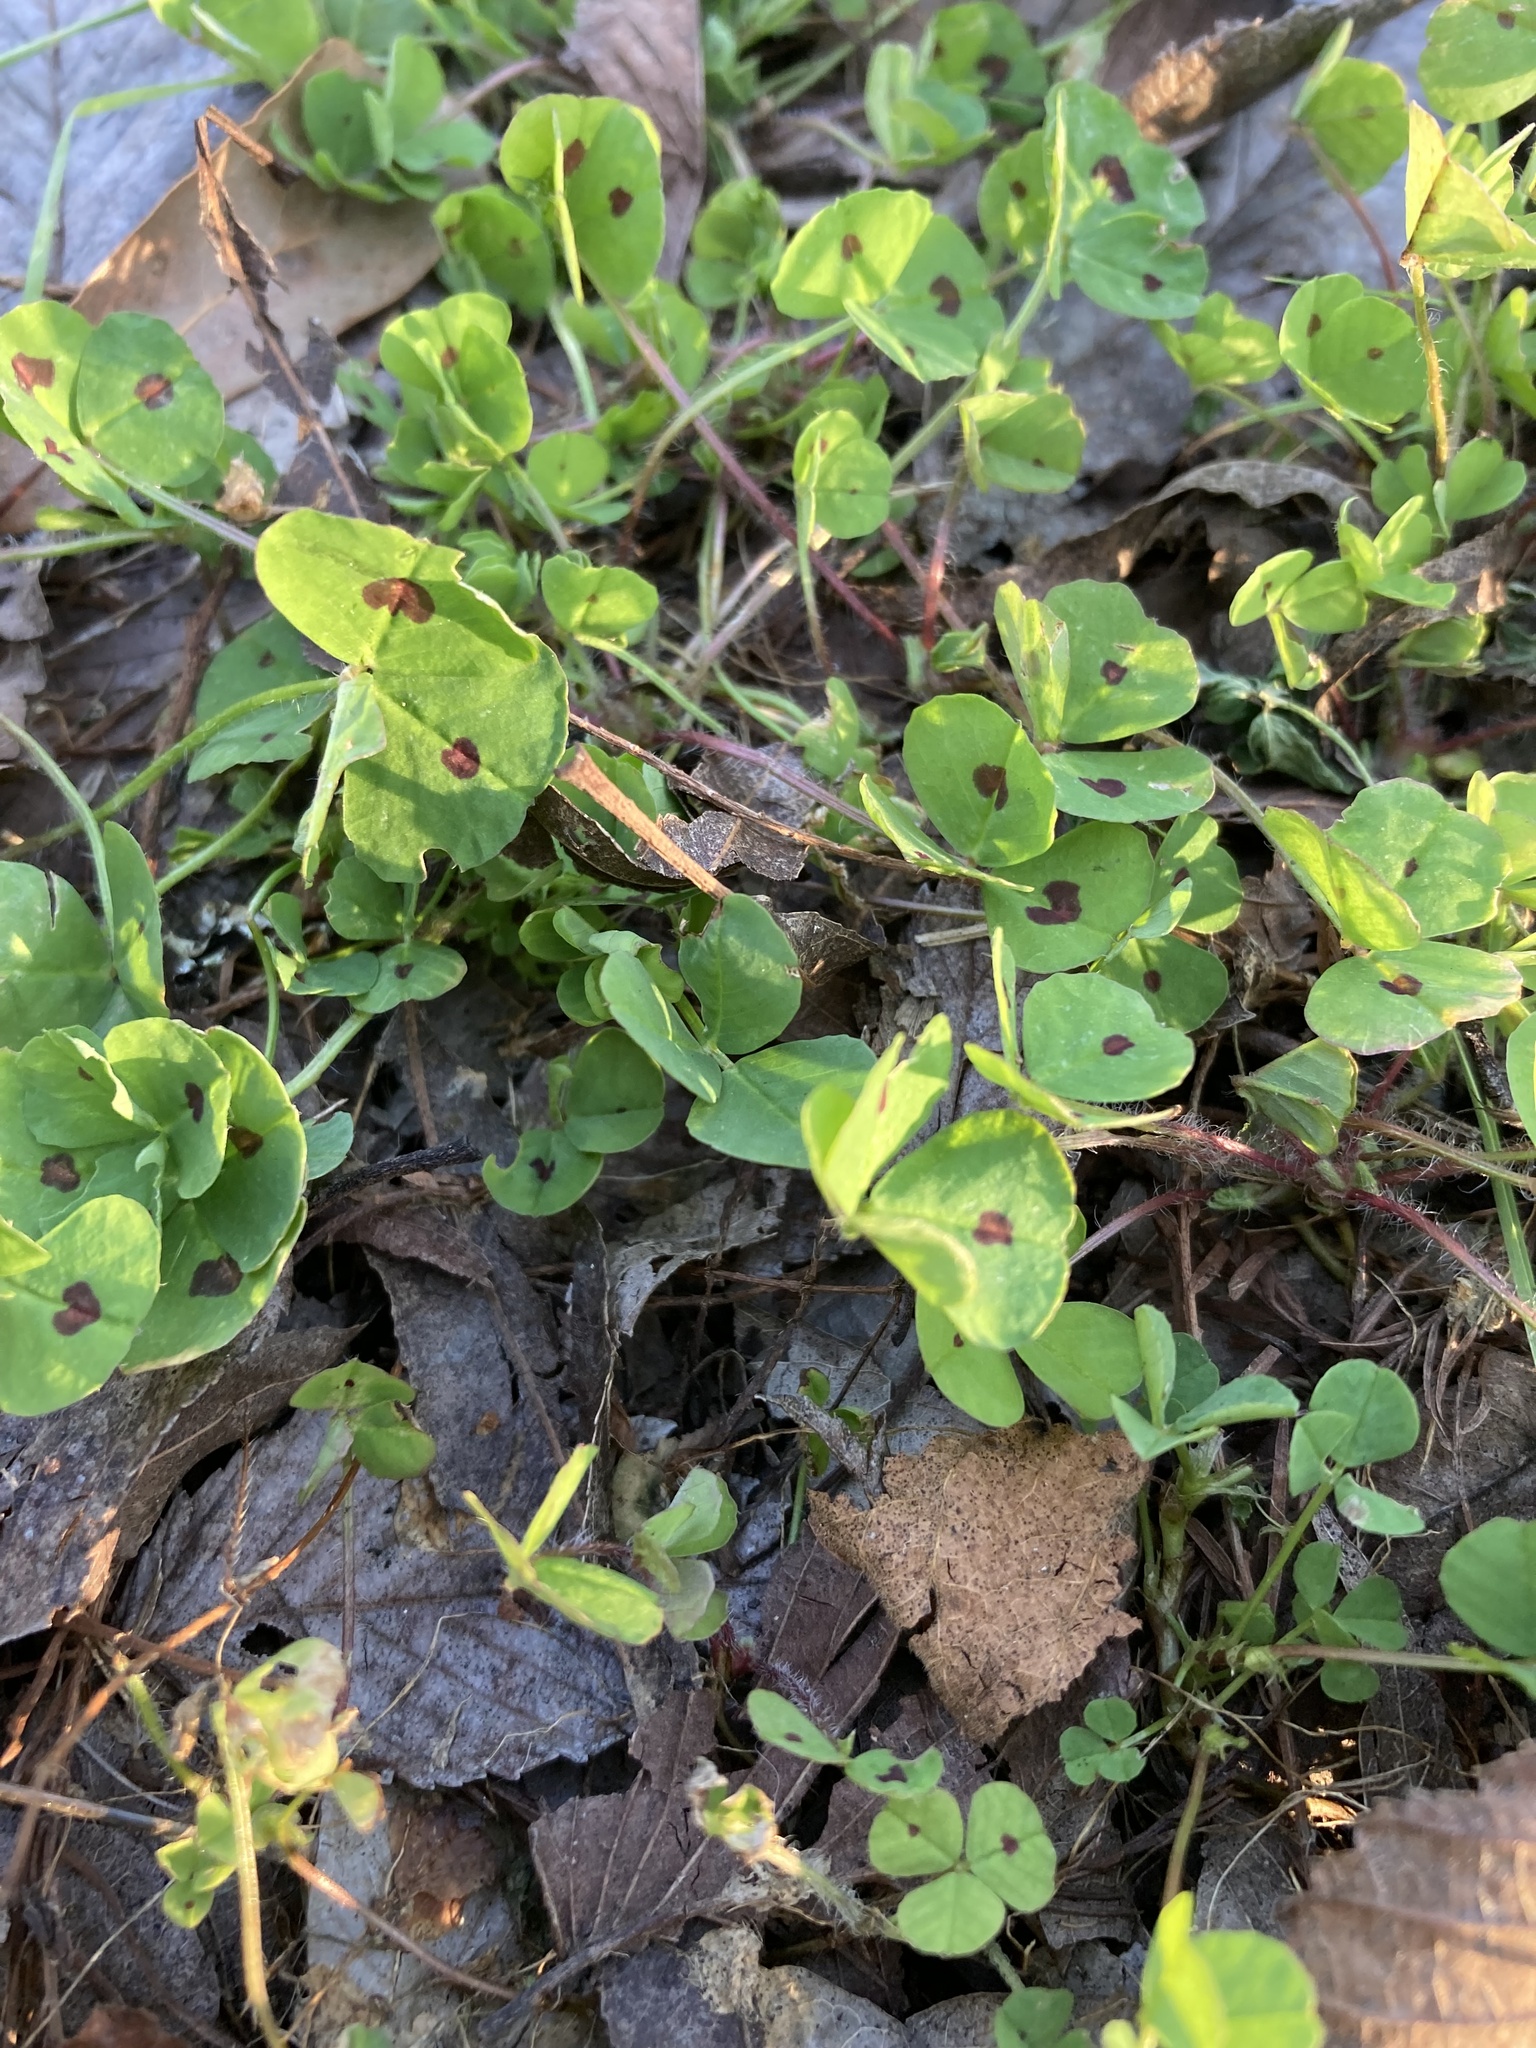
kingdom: Plantae
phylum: Tracheophyta
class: Magnoliopsida
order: Fabales
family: Fabaceae
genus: Medicago
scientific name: Medicago arabica
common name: Spotted medick
